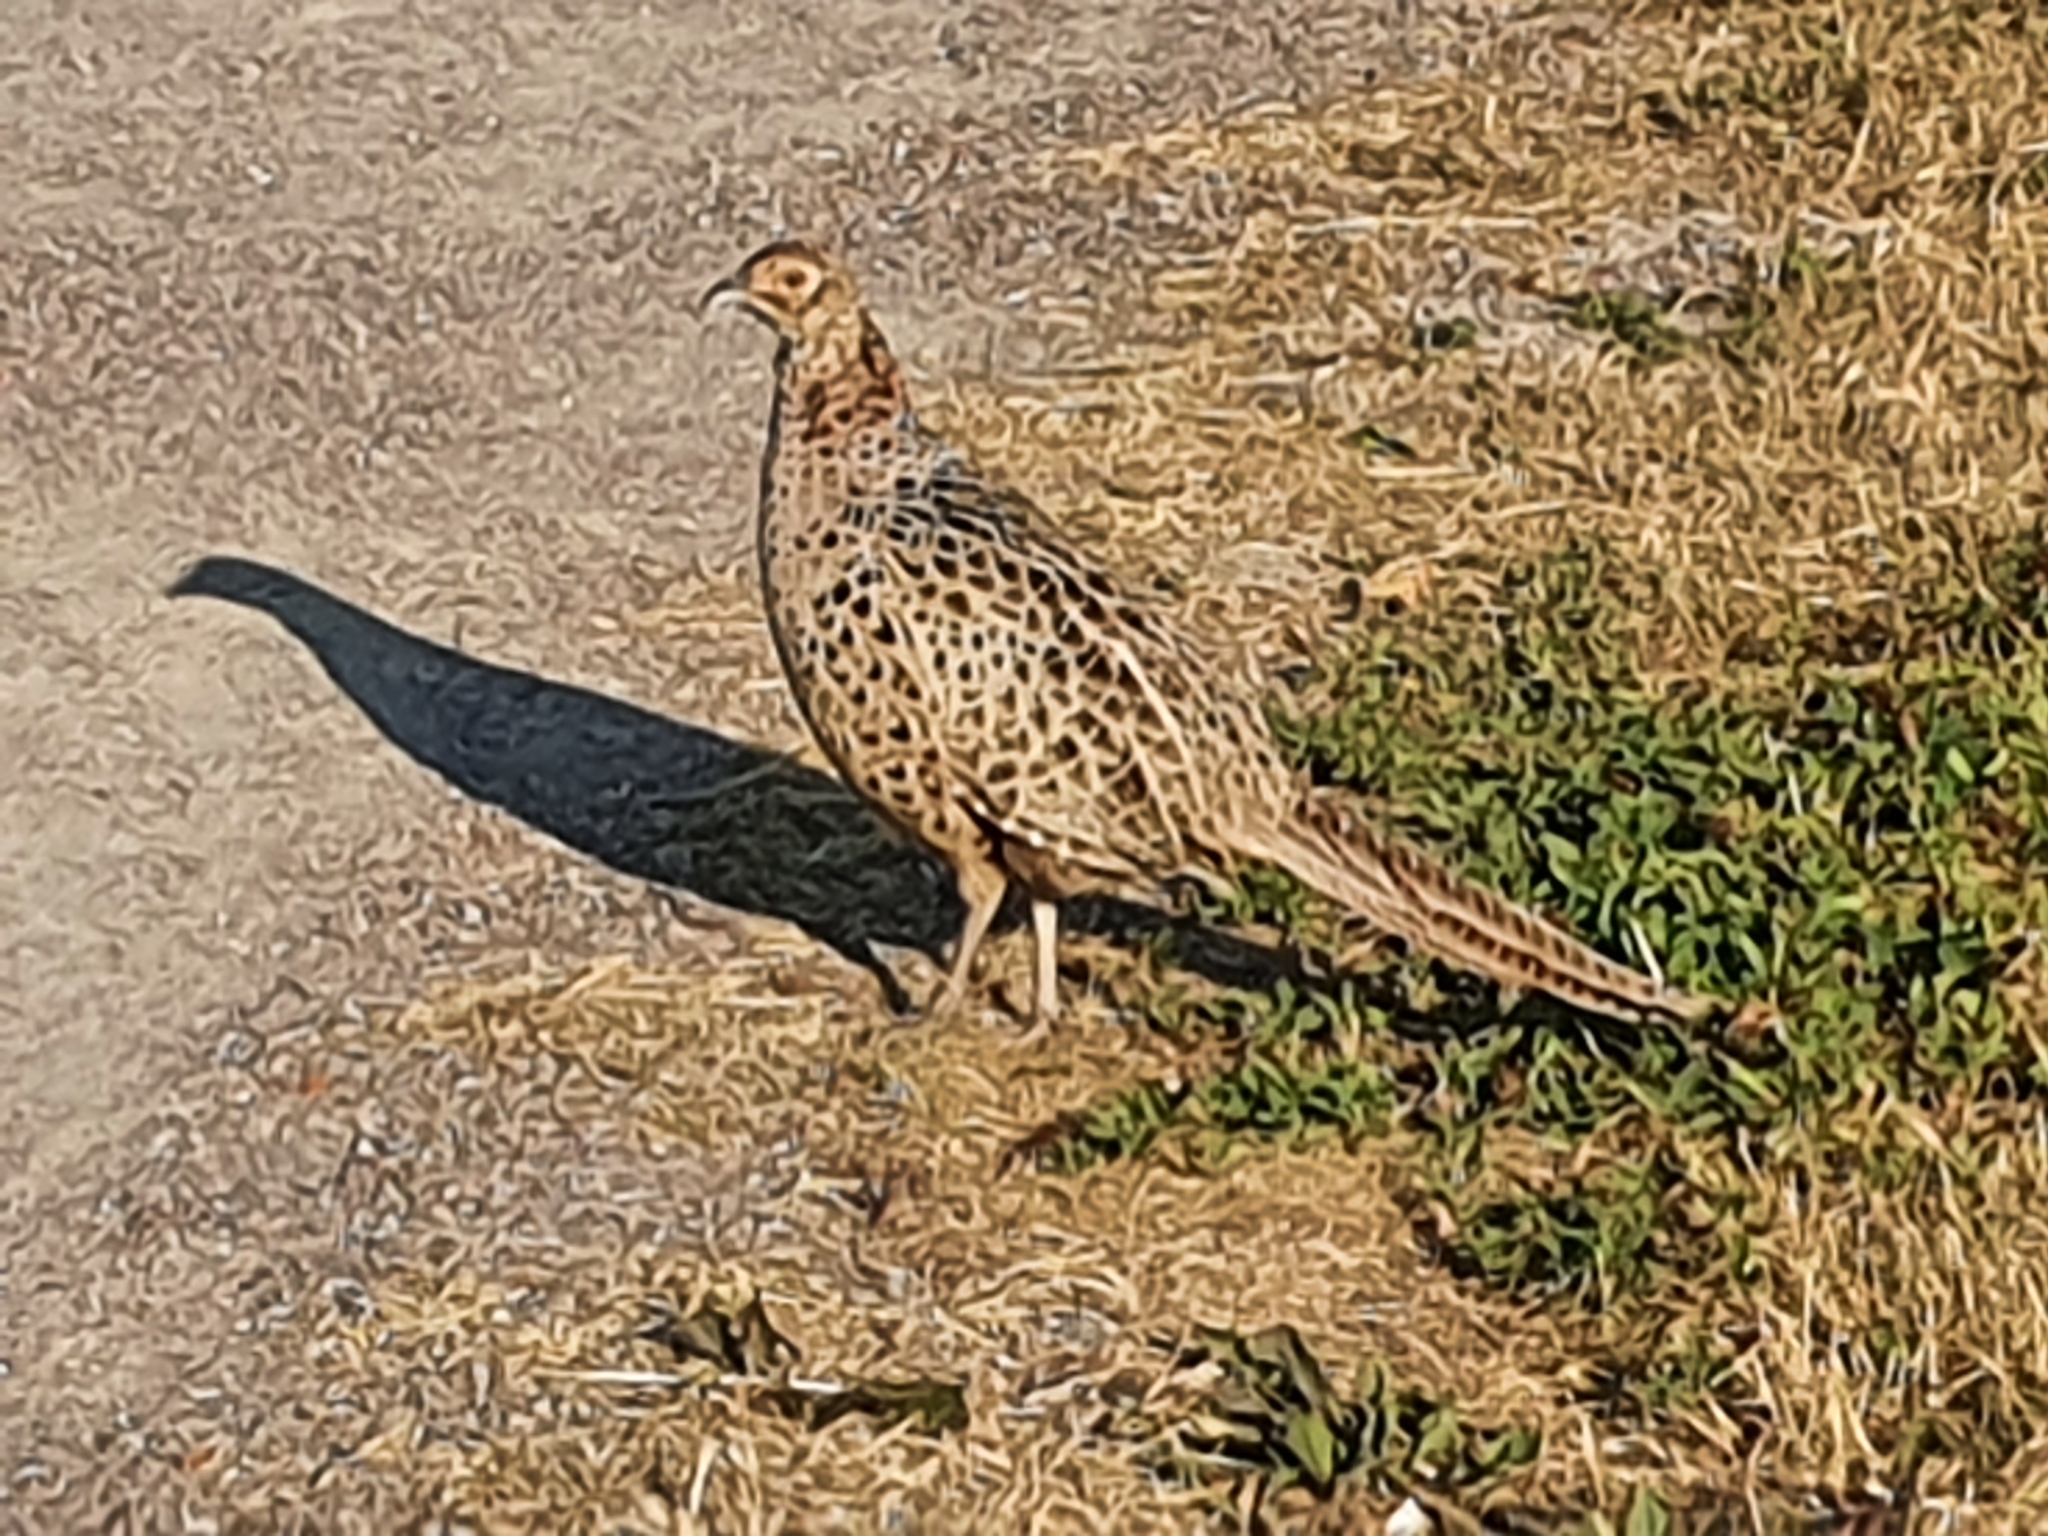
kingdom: Animalia
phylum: Chordata
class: Aves
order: Galliformes
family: Phasianidae
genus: Phasianus
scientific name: Phasianus colchicus
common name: Common pheasant
